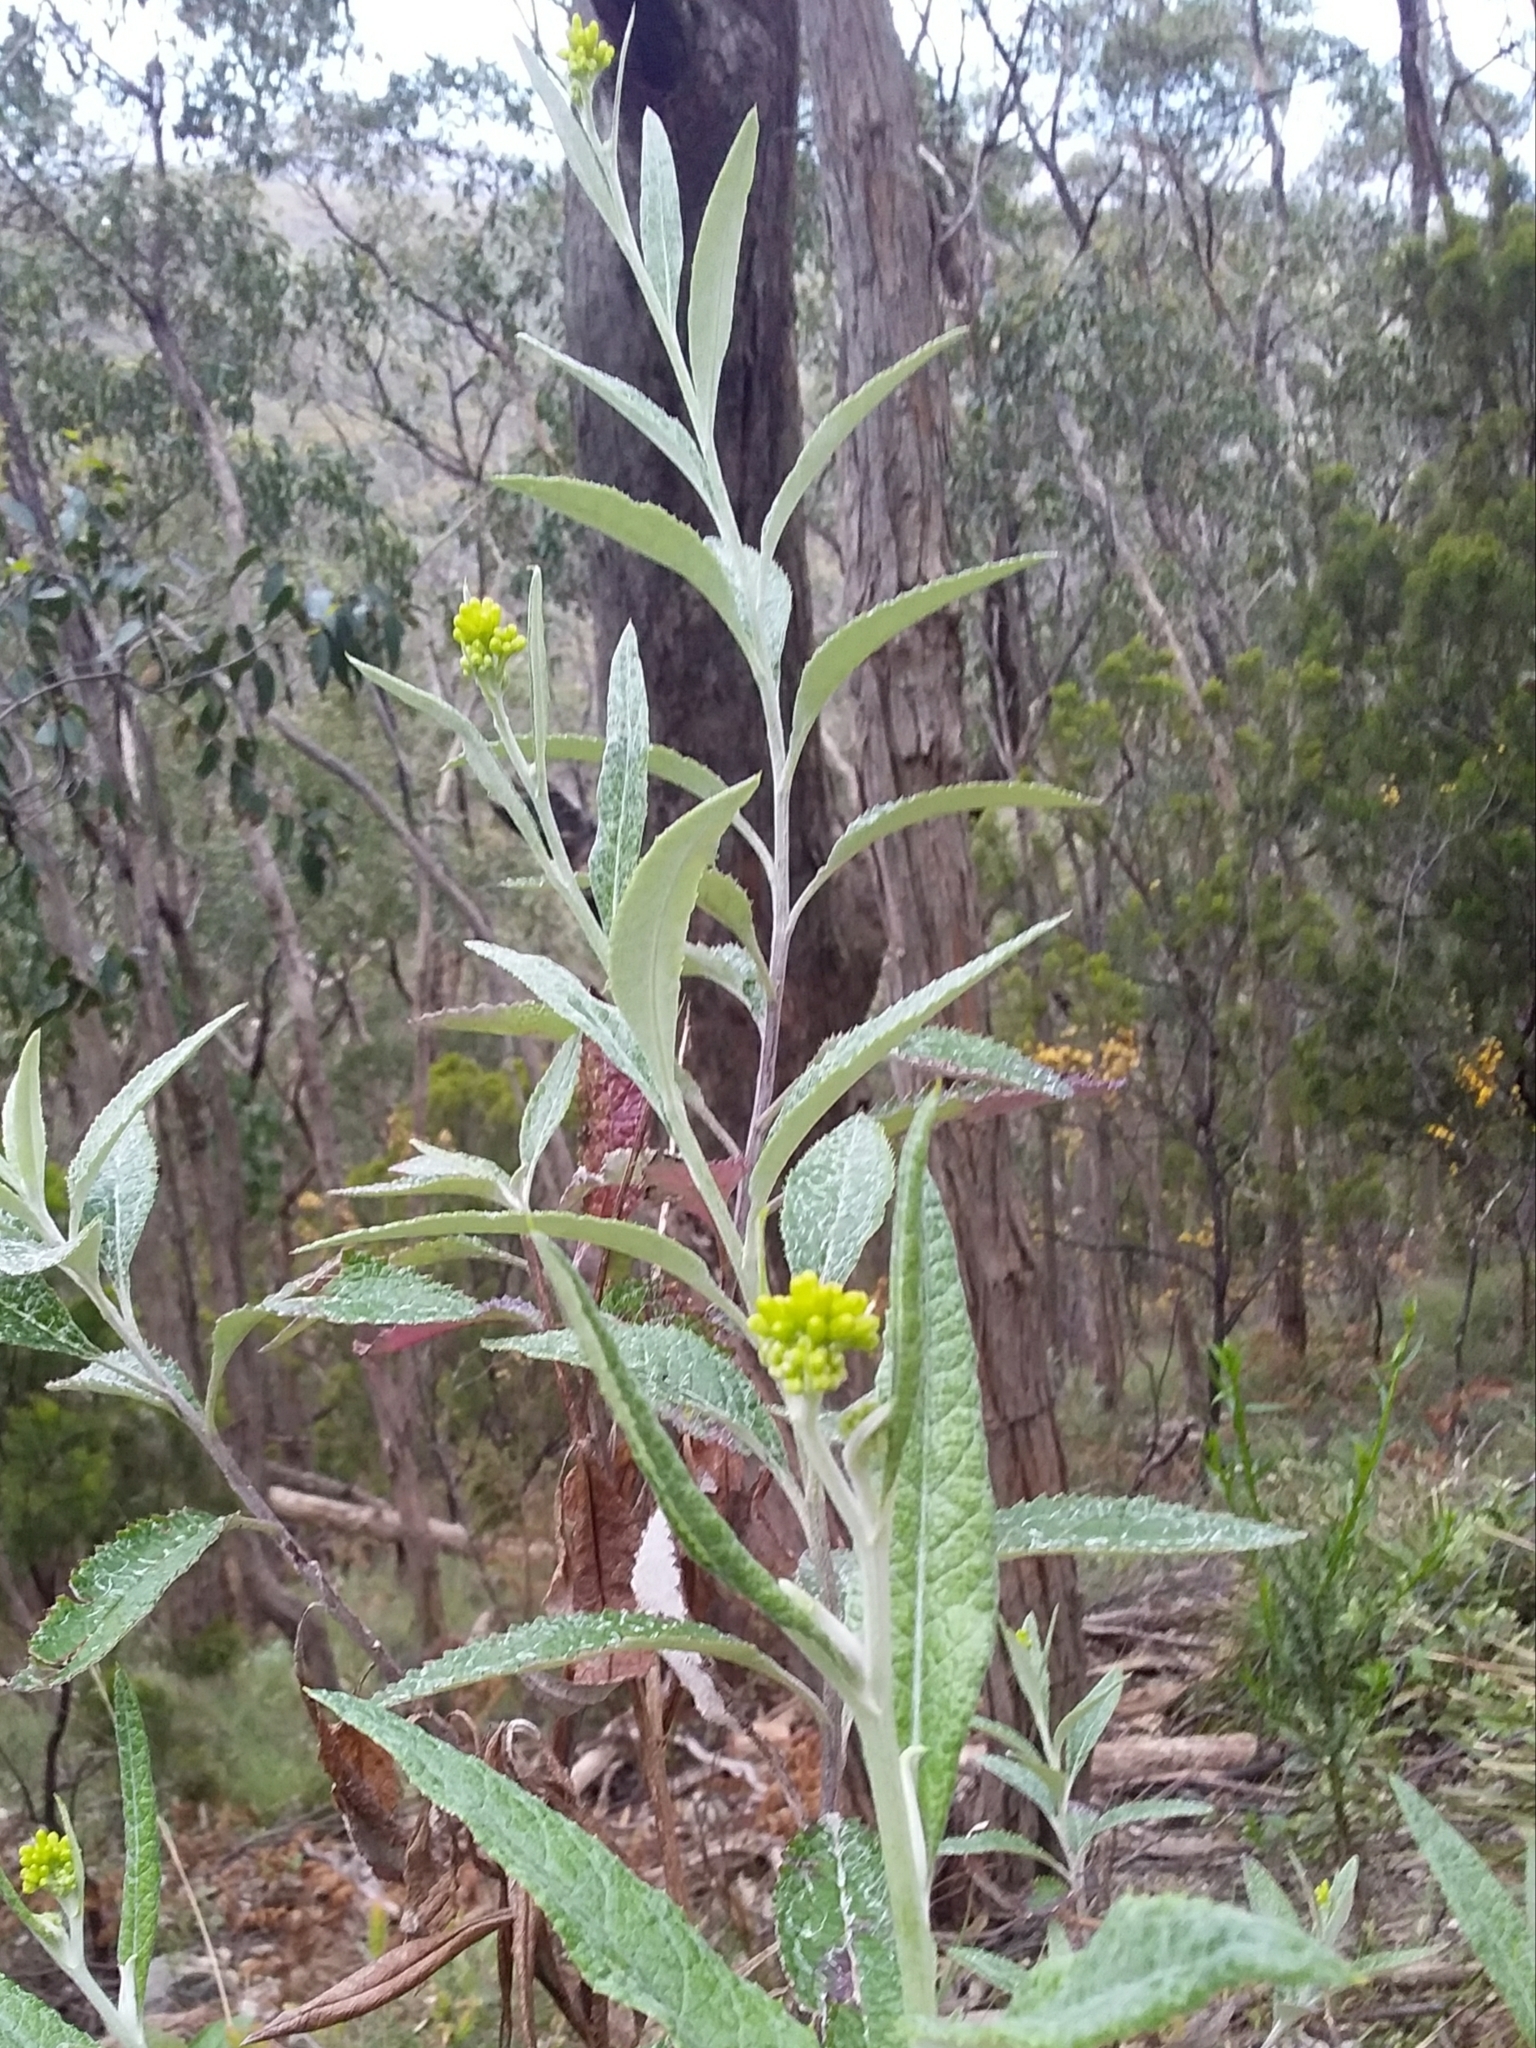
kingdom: Plantae
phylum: Tracheophyta
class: Magnoliopsida
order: Asterales
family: Asteraceae
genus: Senecio
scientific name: Senecio hypoleucus
